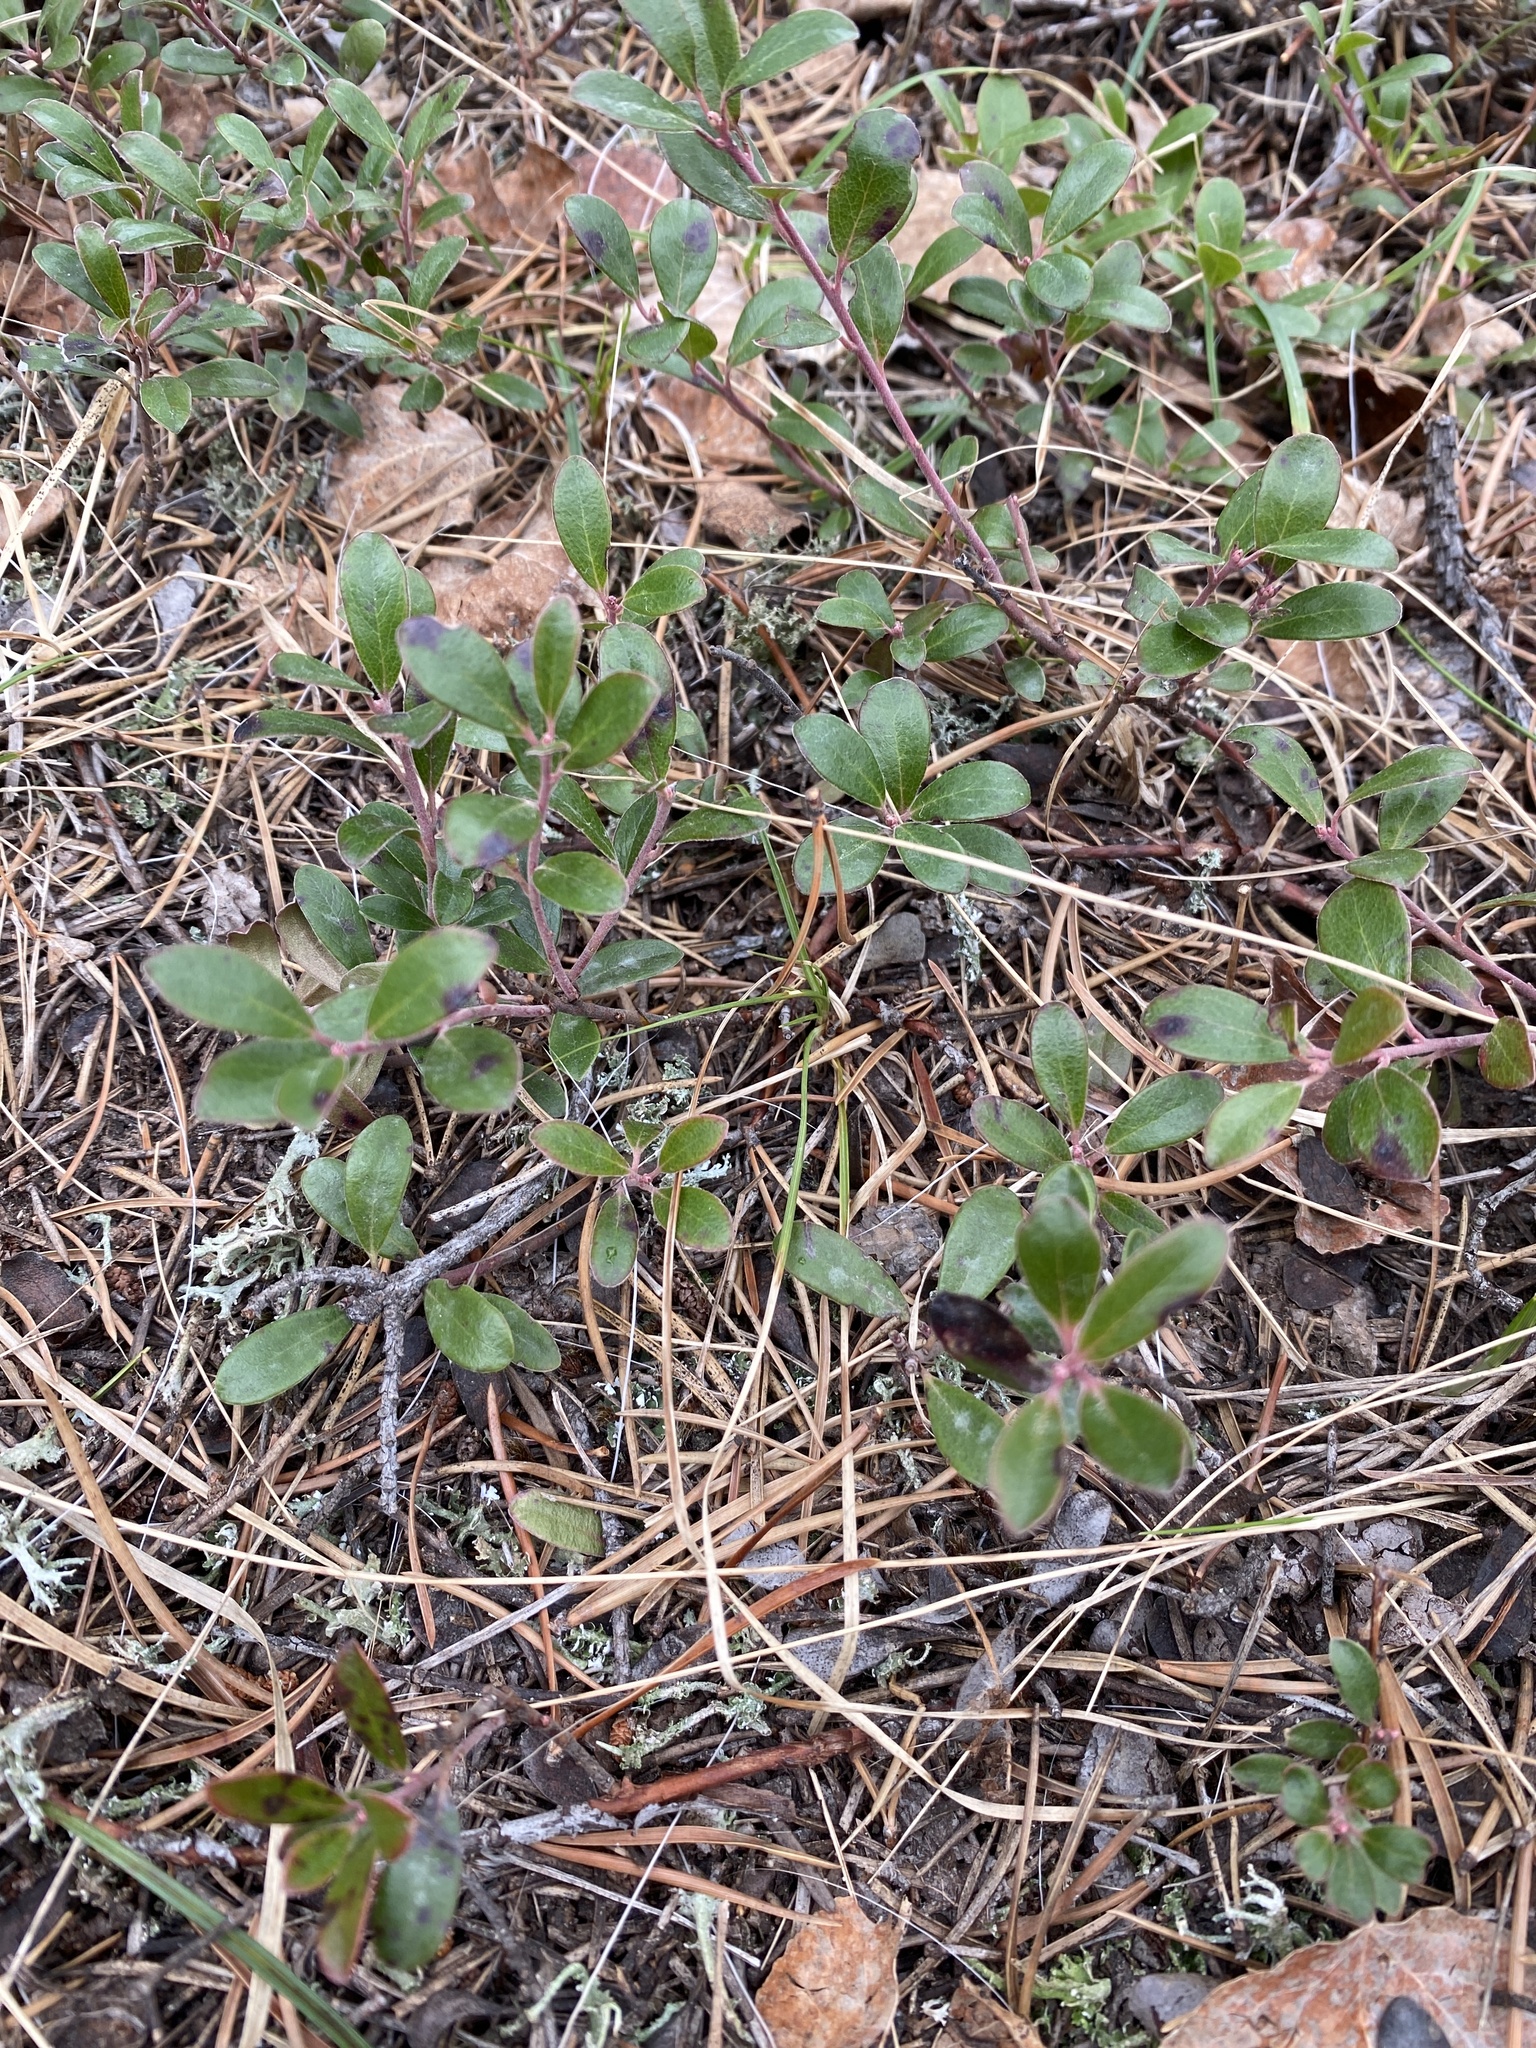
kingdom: Plantae
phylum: Tracheophyta
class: Magnoliopsida
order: Ericales
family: Ericaceae
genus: Arctostaphylos
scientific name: Arctostaphylos uva-ursi
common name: Bearberry
